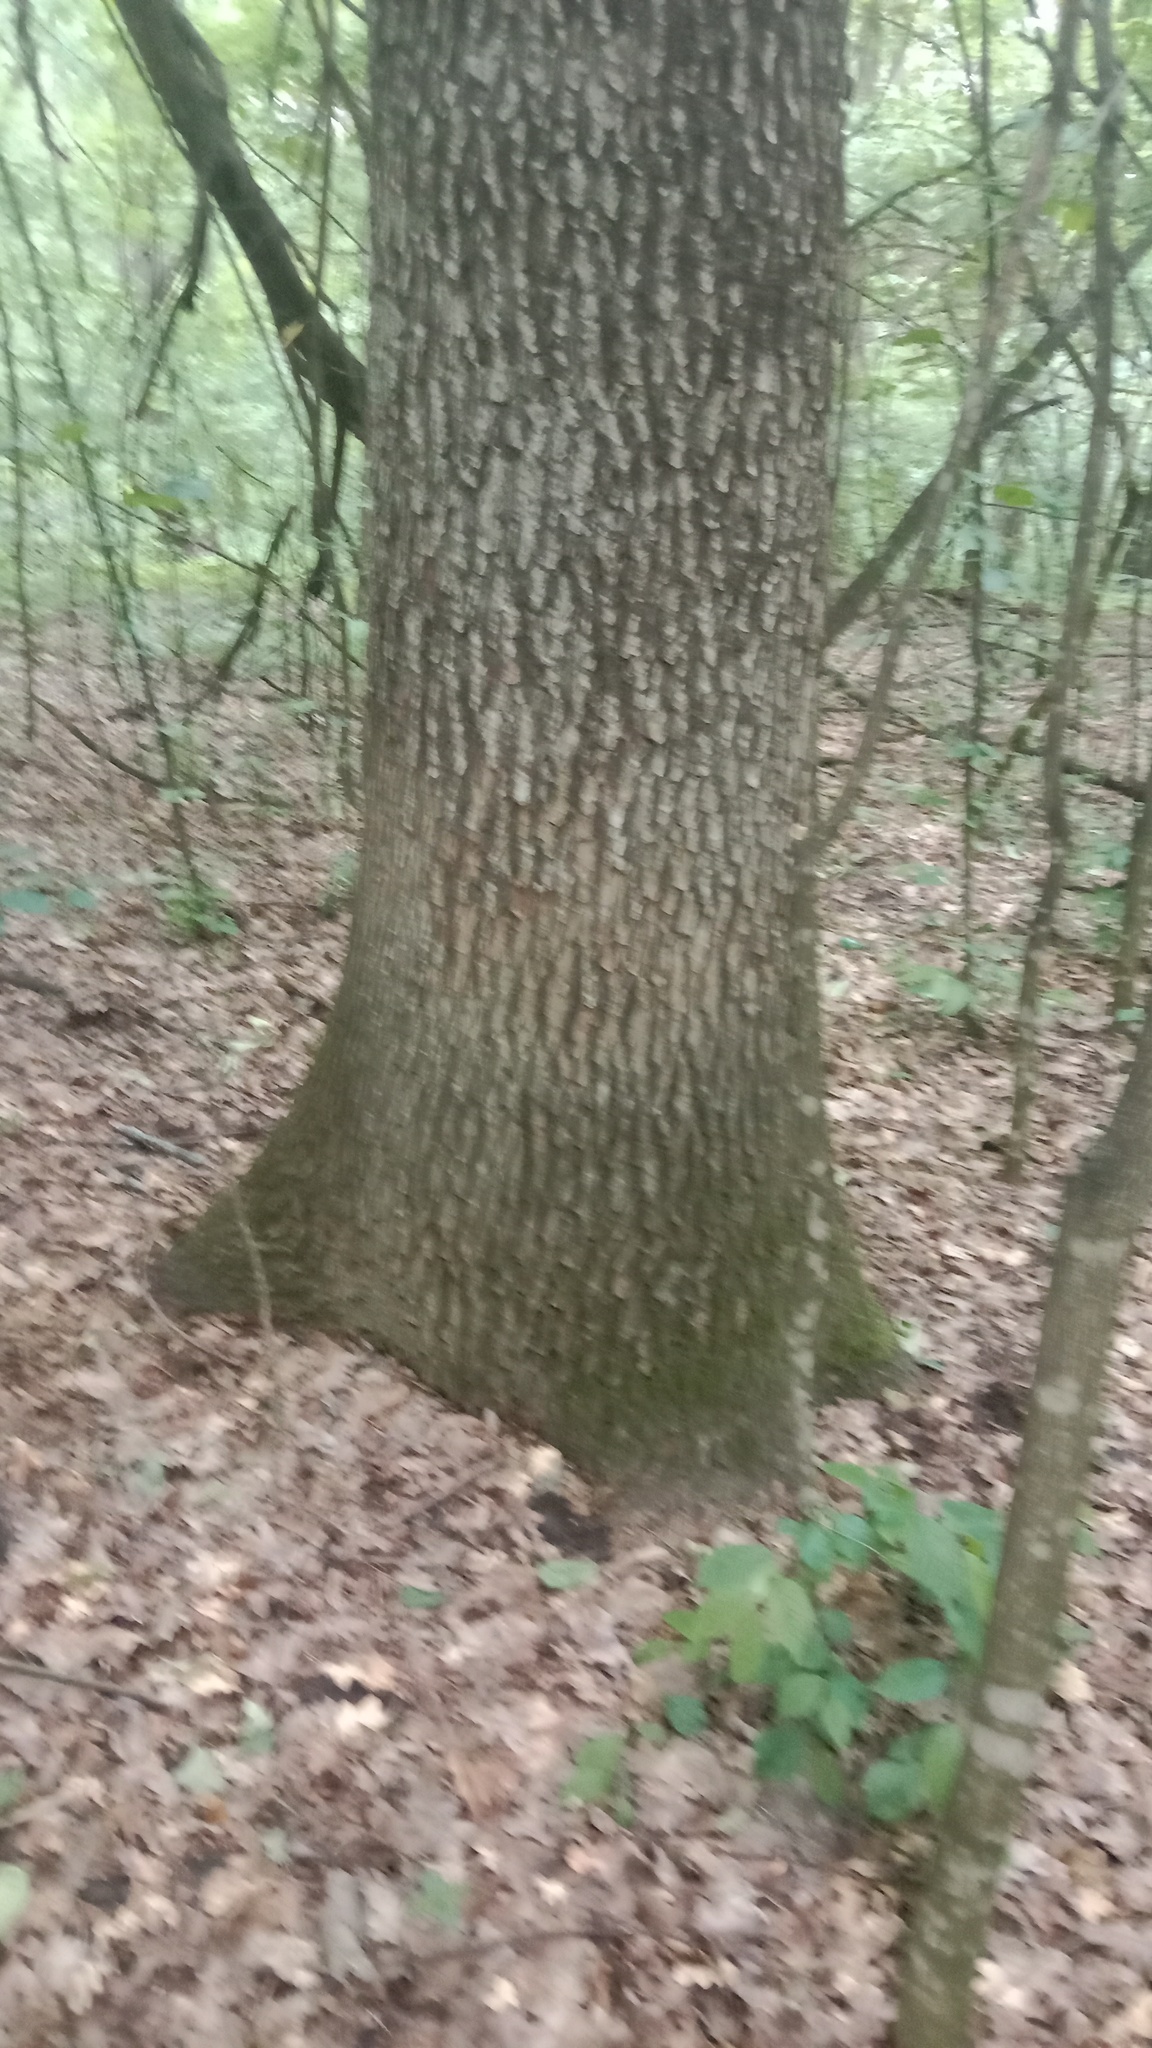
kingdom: Plantae
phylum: Tracheophyta
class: Magnoliopsida
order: Fagales
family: Fagaceae
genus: Quercus
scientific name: Quercus robur
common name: Pedunculate oak
